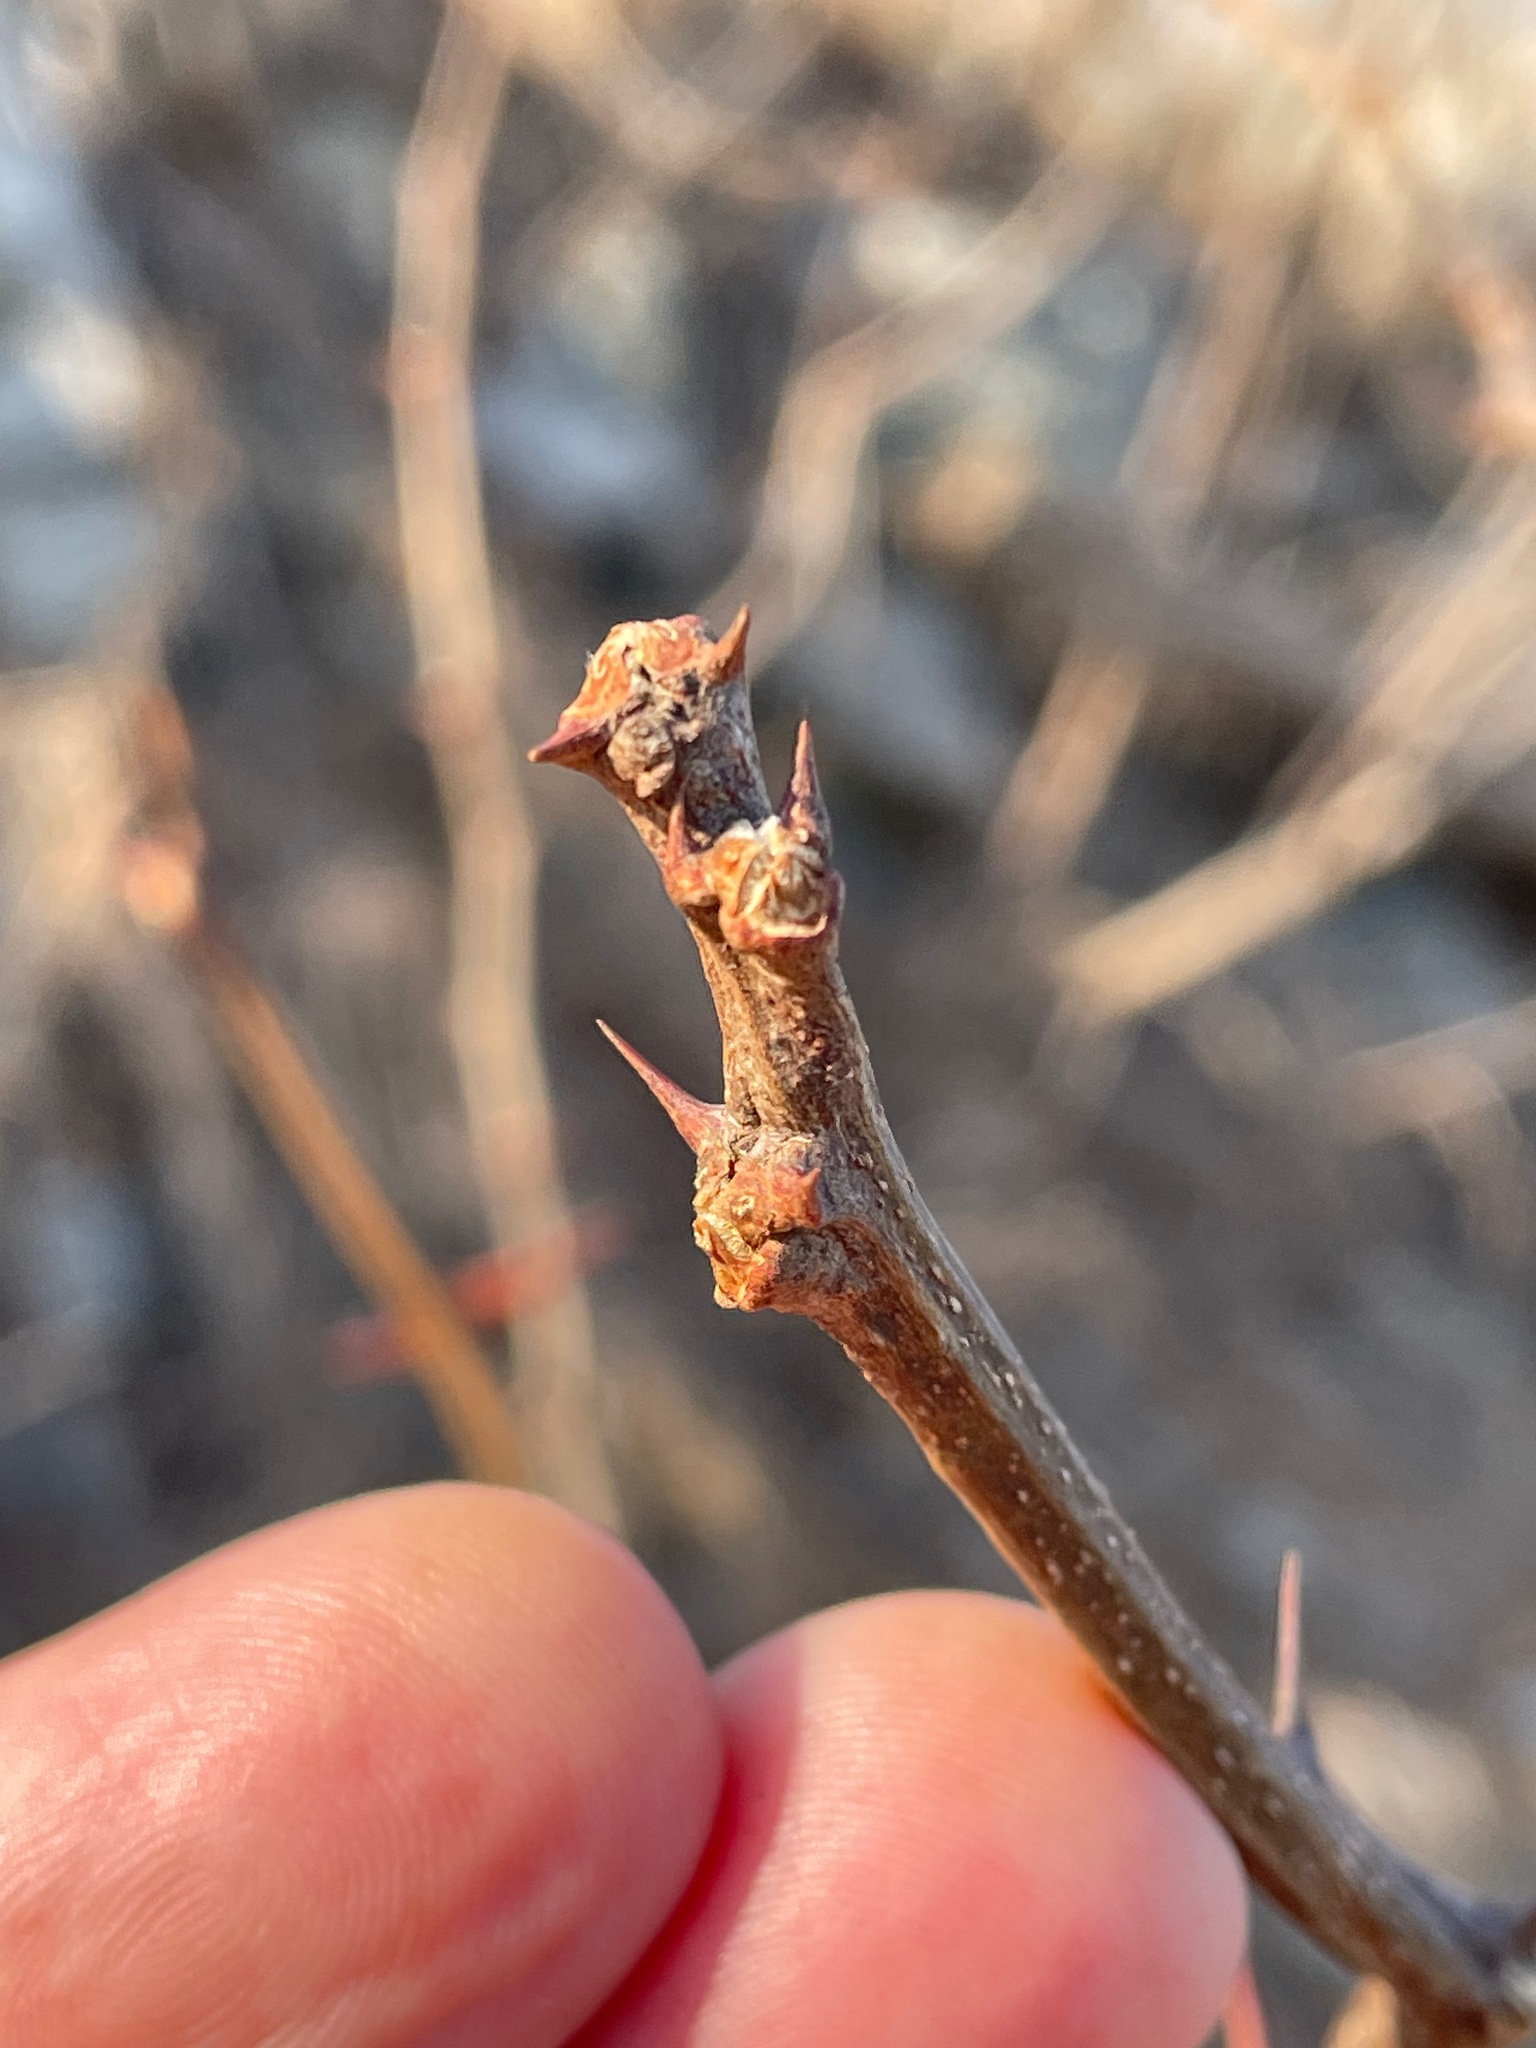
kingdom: Plantae
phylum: Tracheophyta
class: Magnoliopsida
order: Fabales
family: Fabaceae
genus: Robinia
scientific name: Robinia pseudoacacia
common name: Black locust
